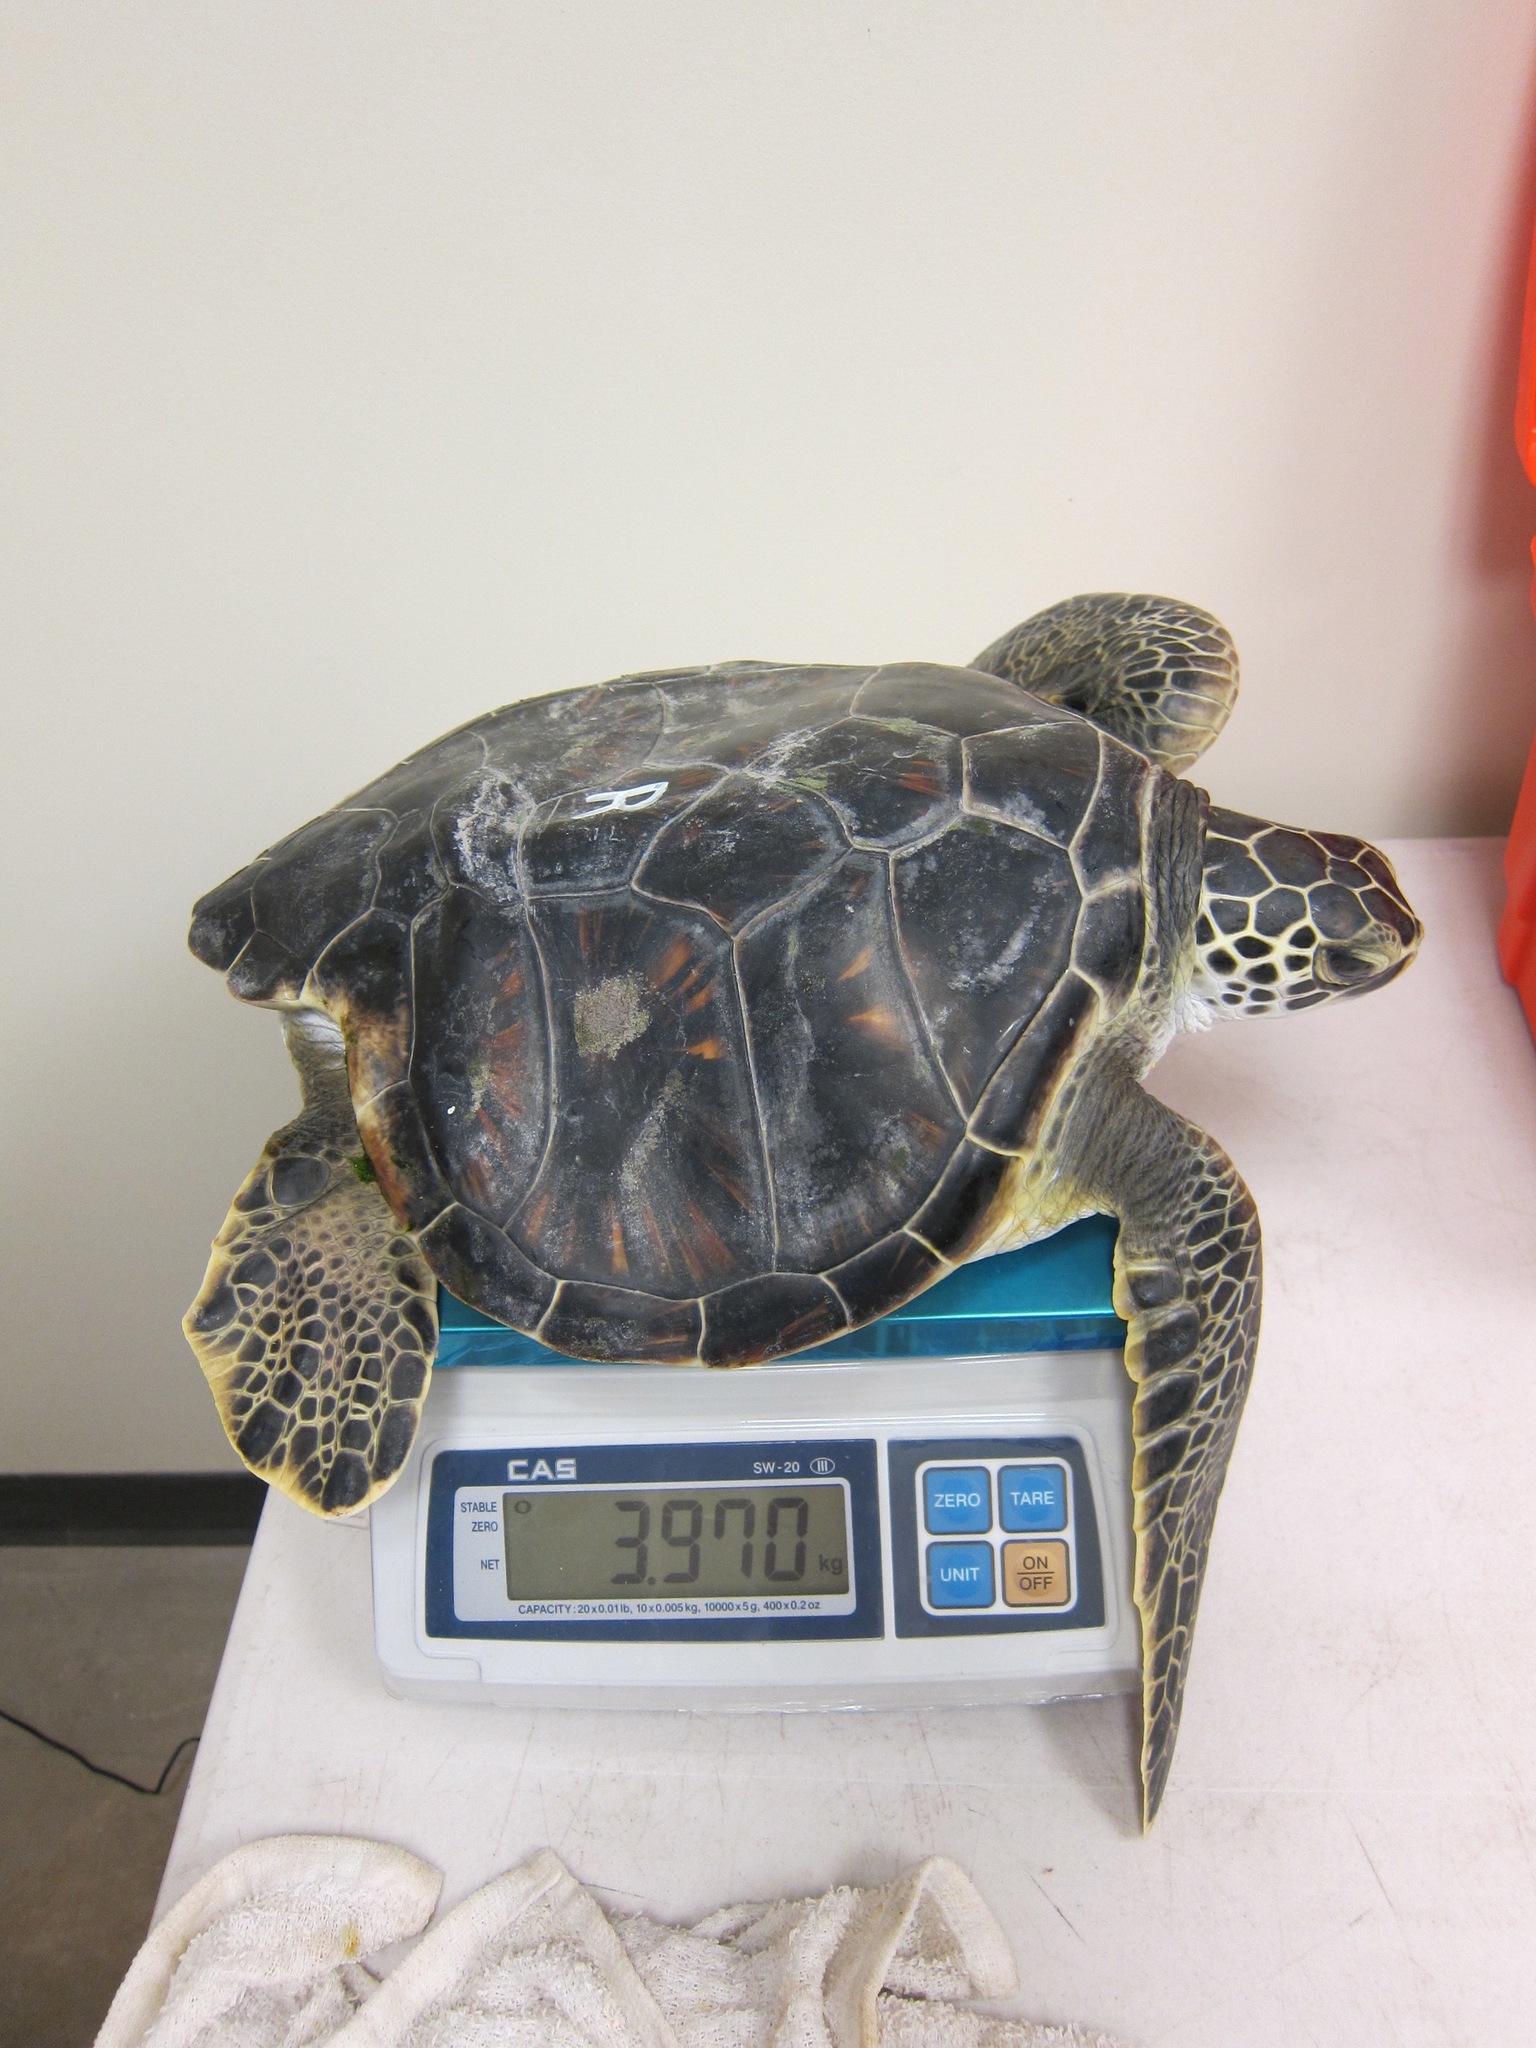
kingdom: Animalia
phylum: Chordata
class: Testudines
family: Cheloniidae
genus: Chelonia
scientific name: Chelonia mydas
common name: Green turtle
